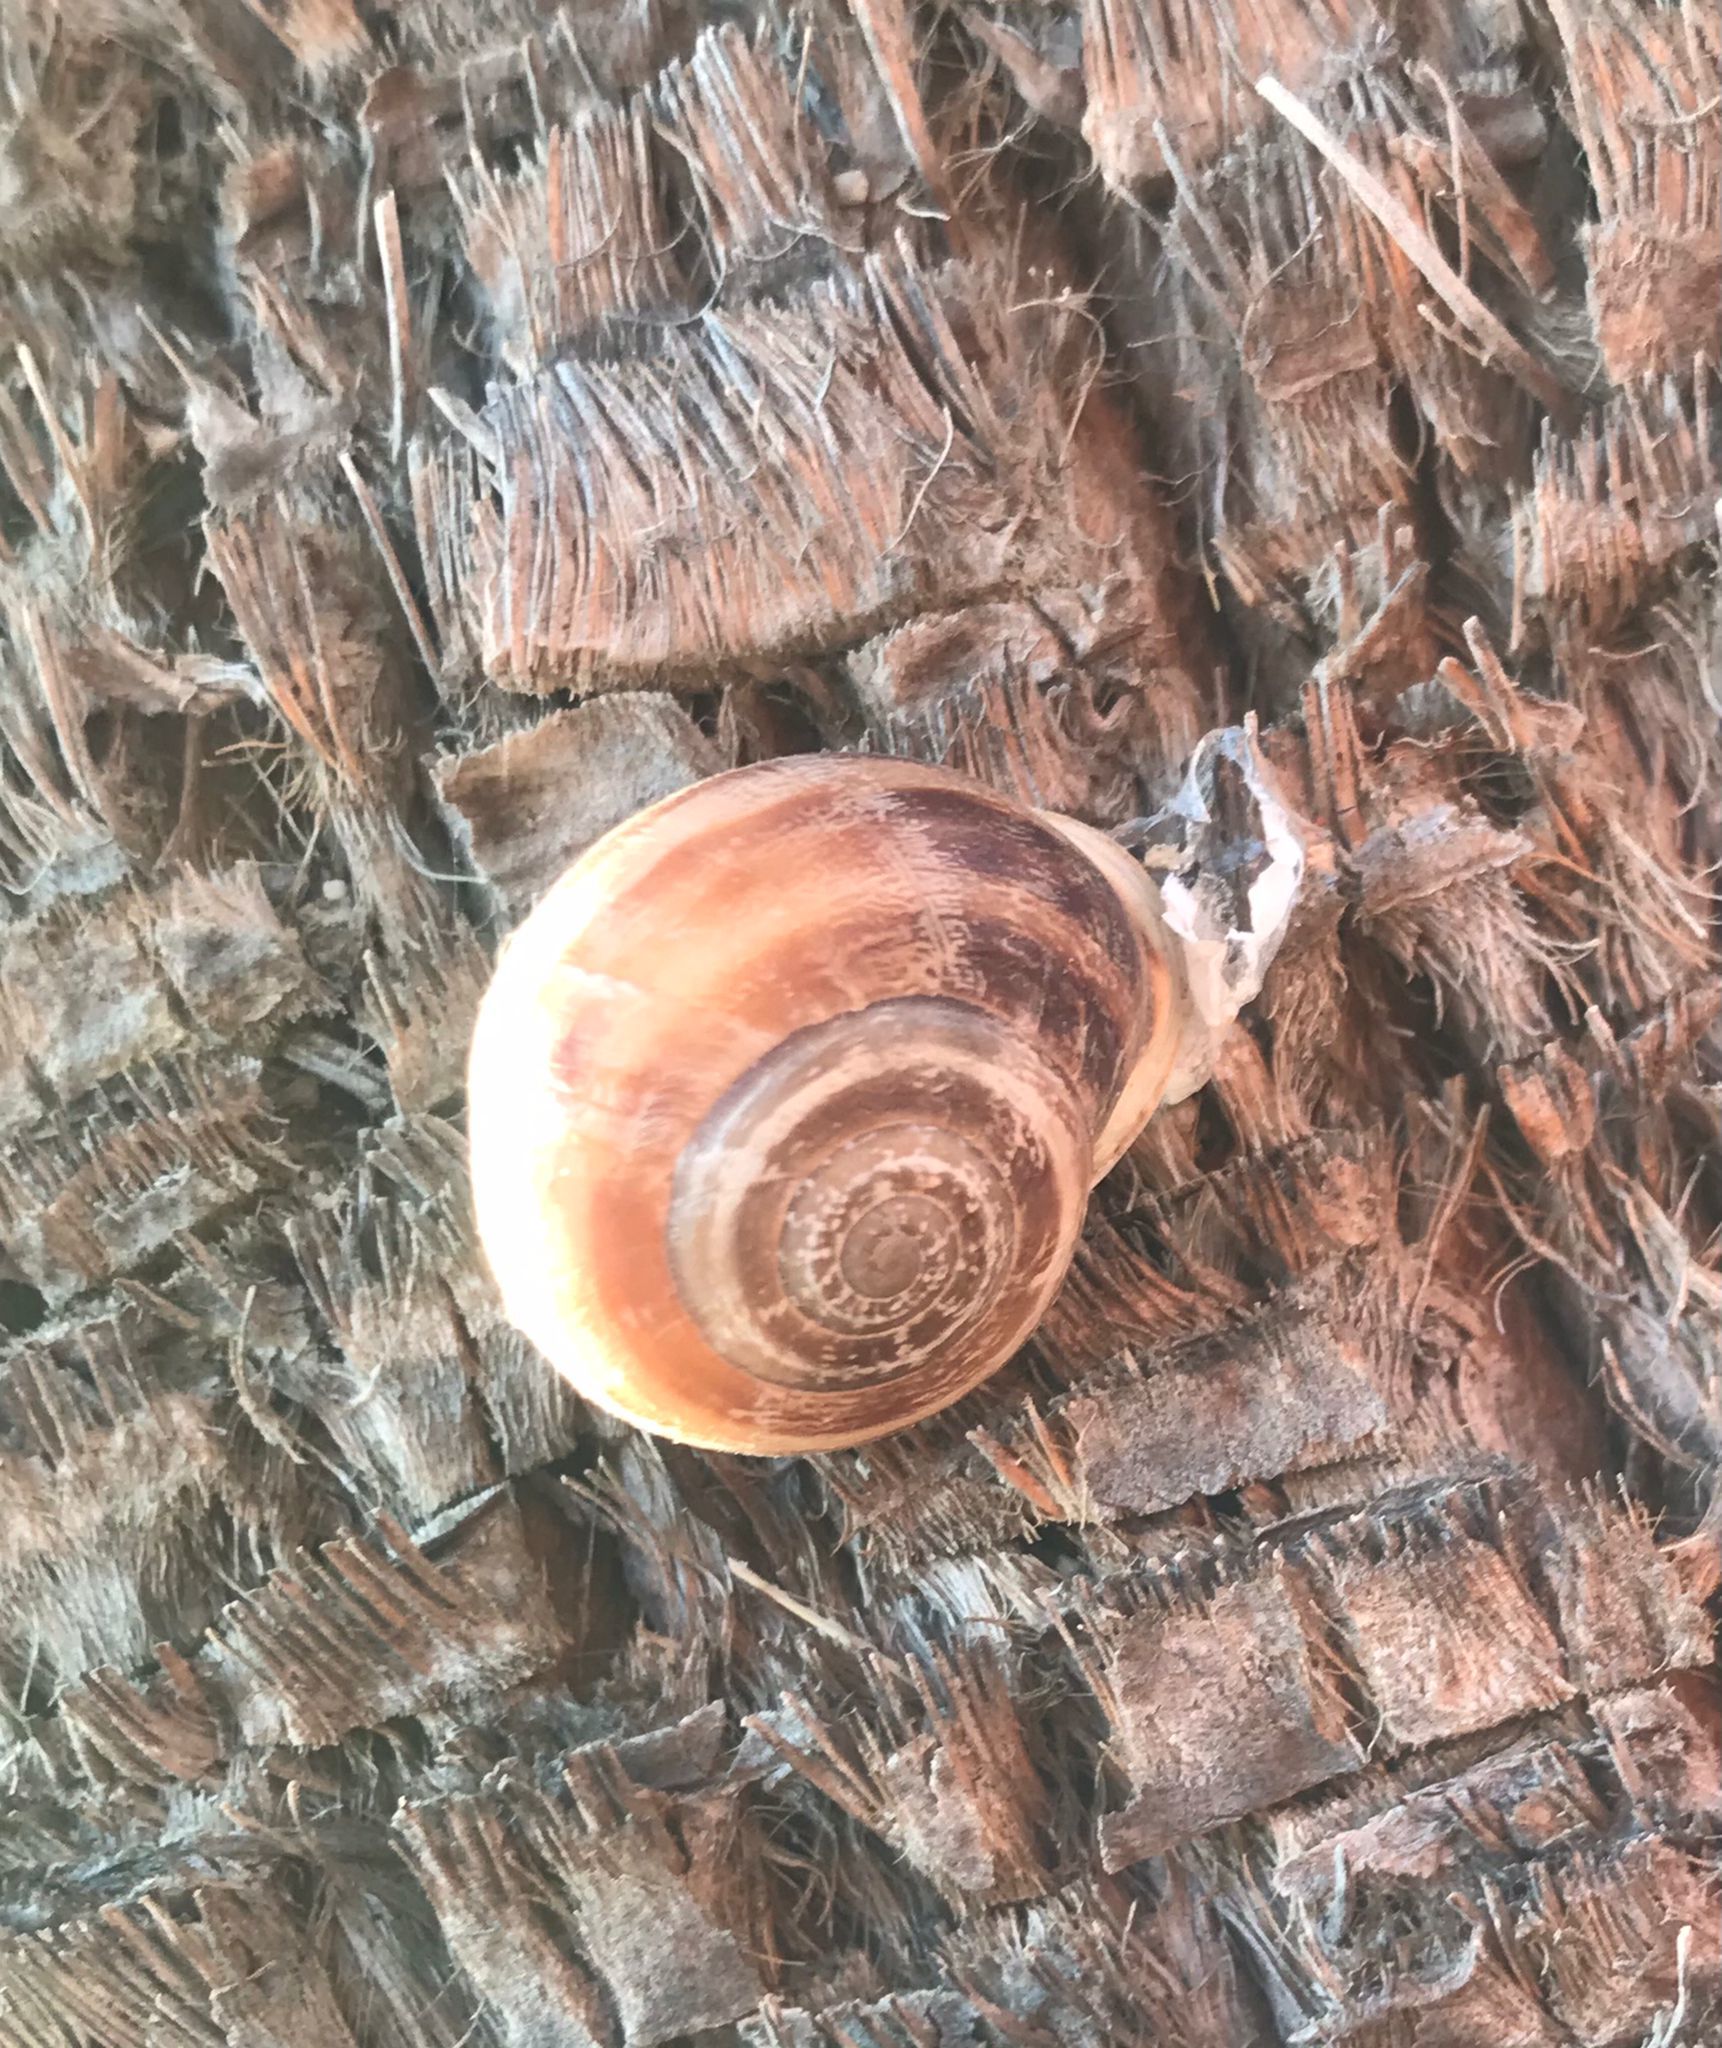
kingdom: Animalia
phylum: Mollusca
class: Gastropoda
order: Stylommatophora
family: Helicidae
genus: Eobania
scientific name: Eobania vermiculata
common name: Chocolateband snail
